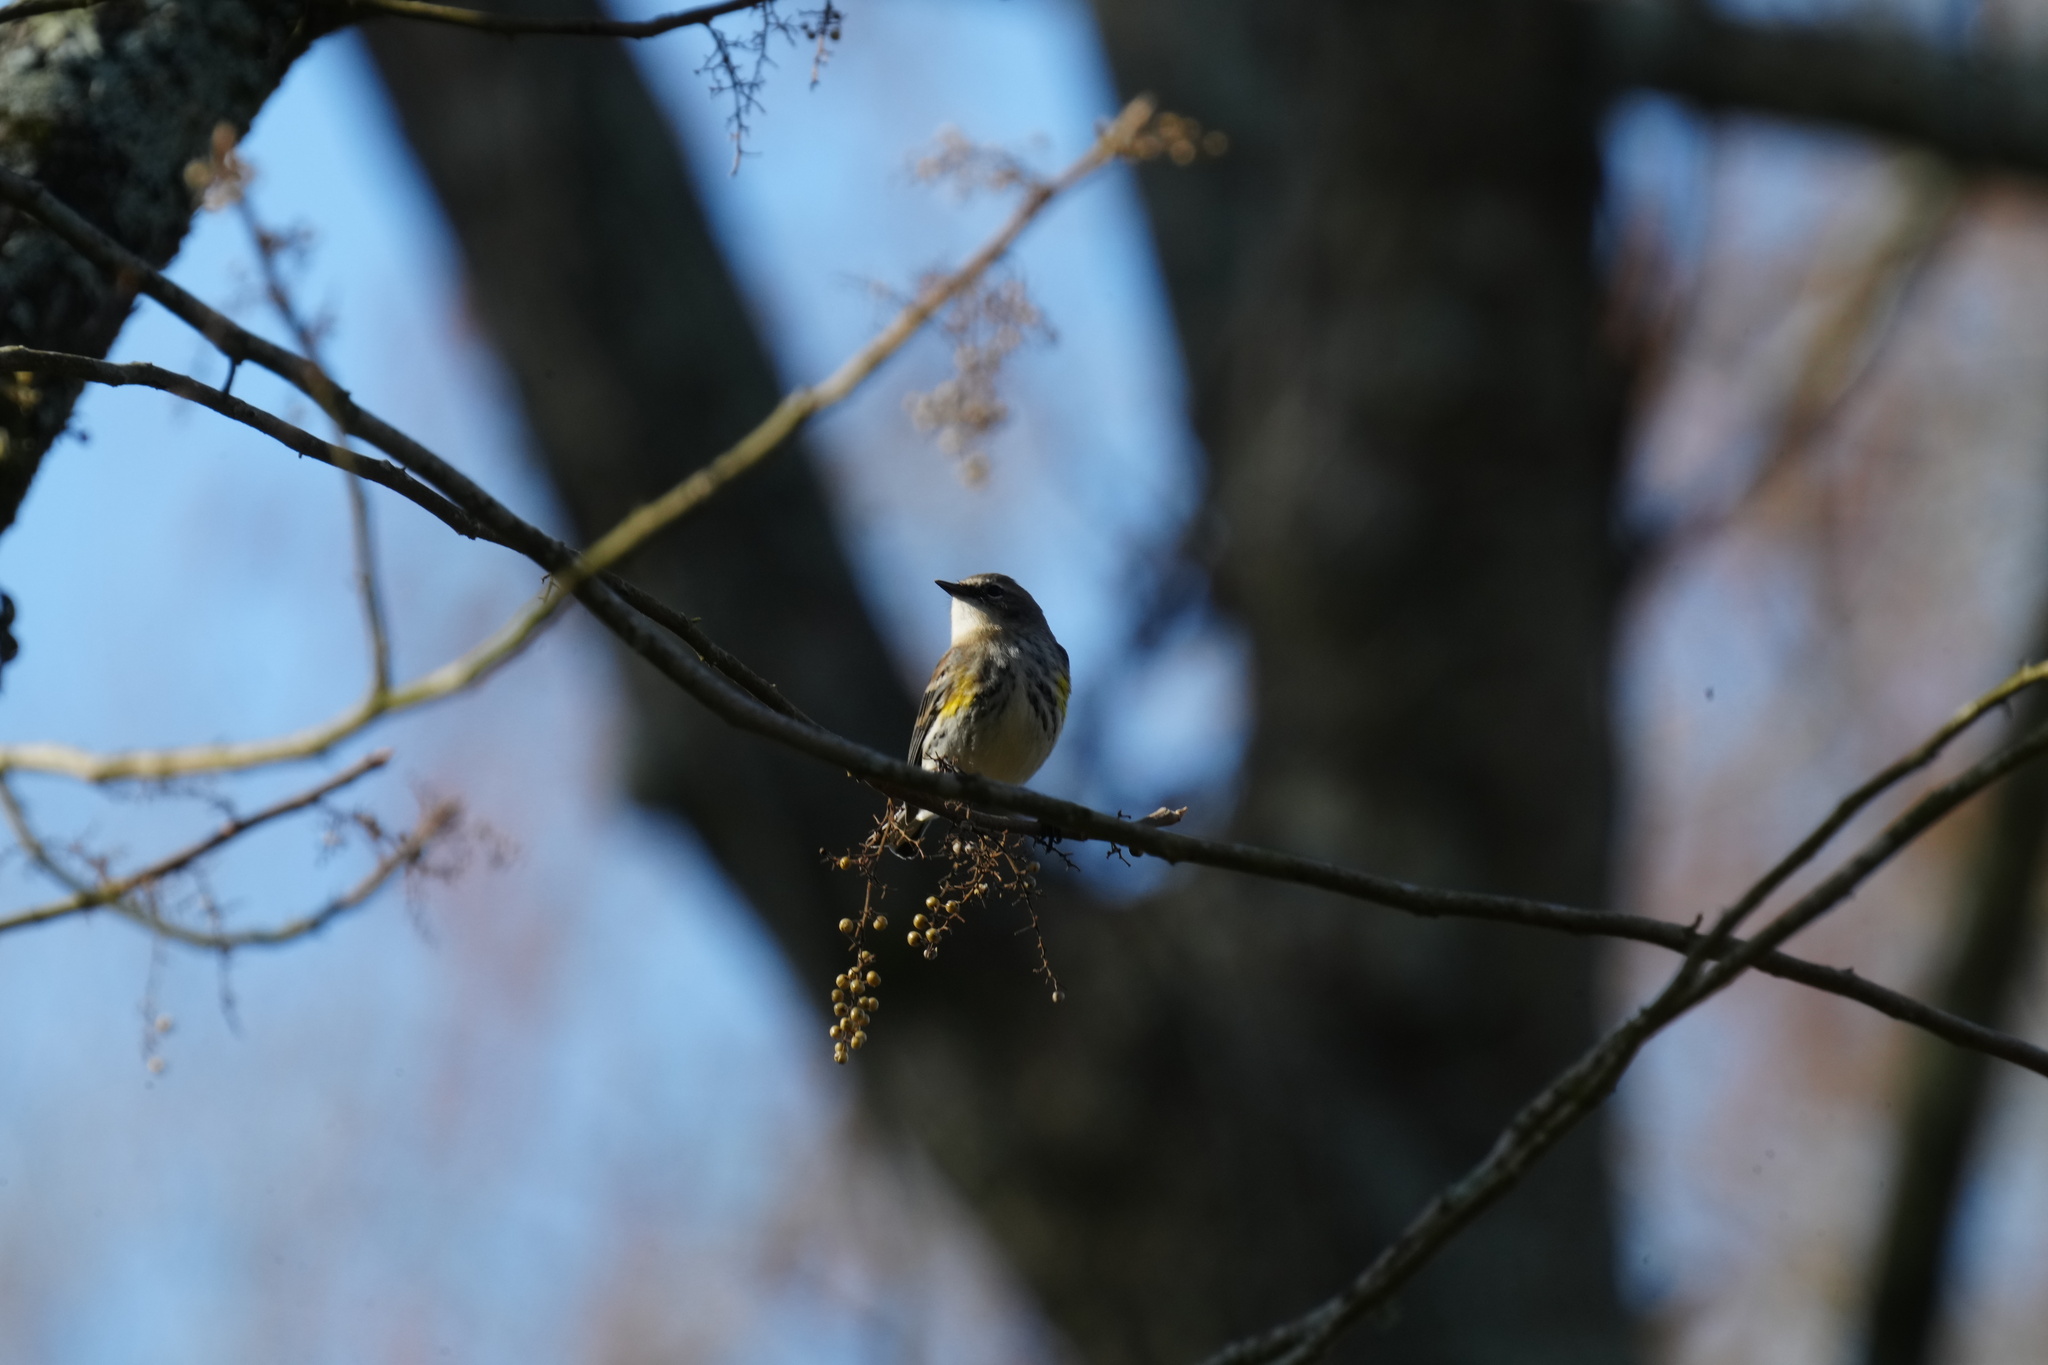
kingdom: Animalia
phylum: Chordata
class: Aves
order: Passeriformes
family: Parulidae
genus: Setophaga
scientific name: Setophaga coronata
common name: Myrtle warbler
